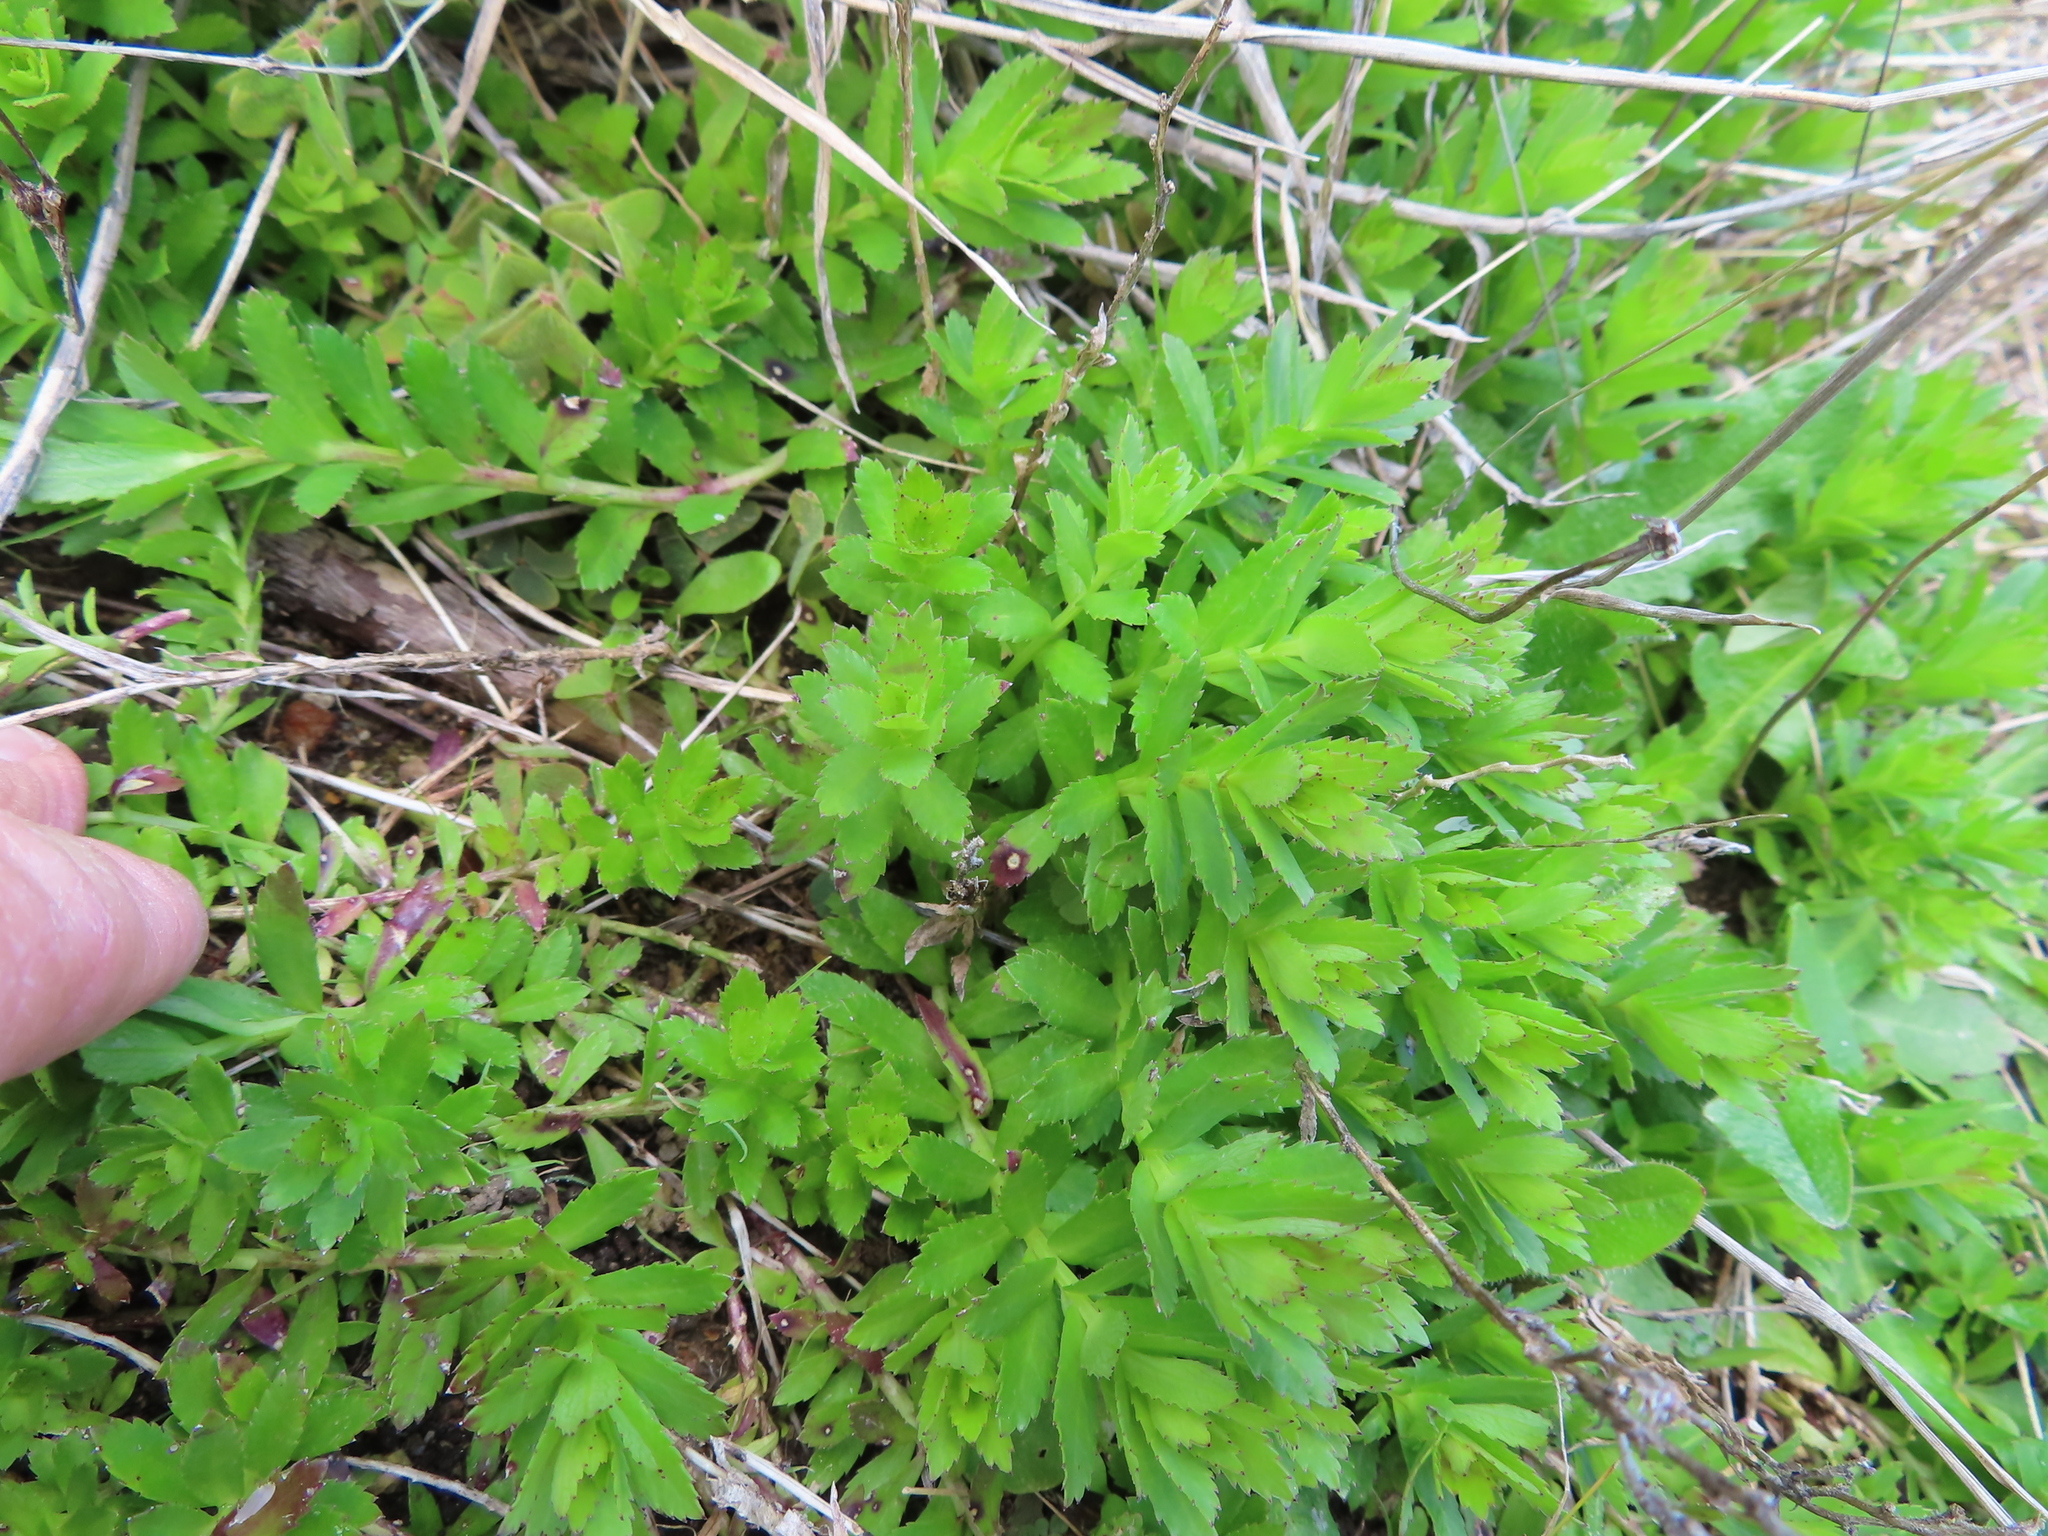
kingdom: Plantae
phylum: Tracheophyta
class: Magnoliopsida
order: Saxifragales
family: Haloragaceae
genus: Laurembergia
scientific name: Laurembergia repens
